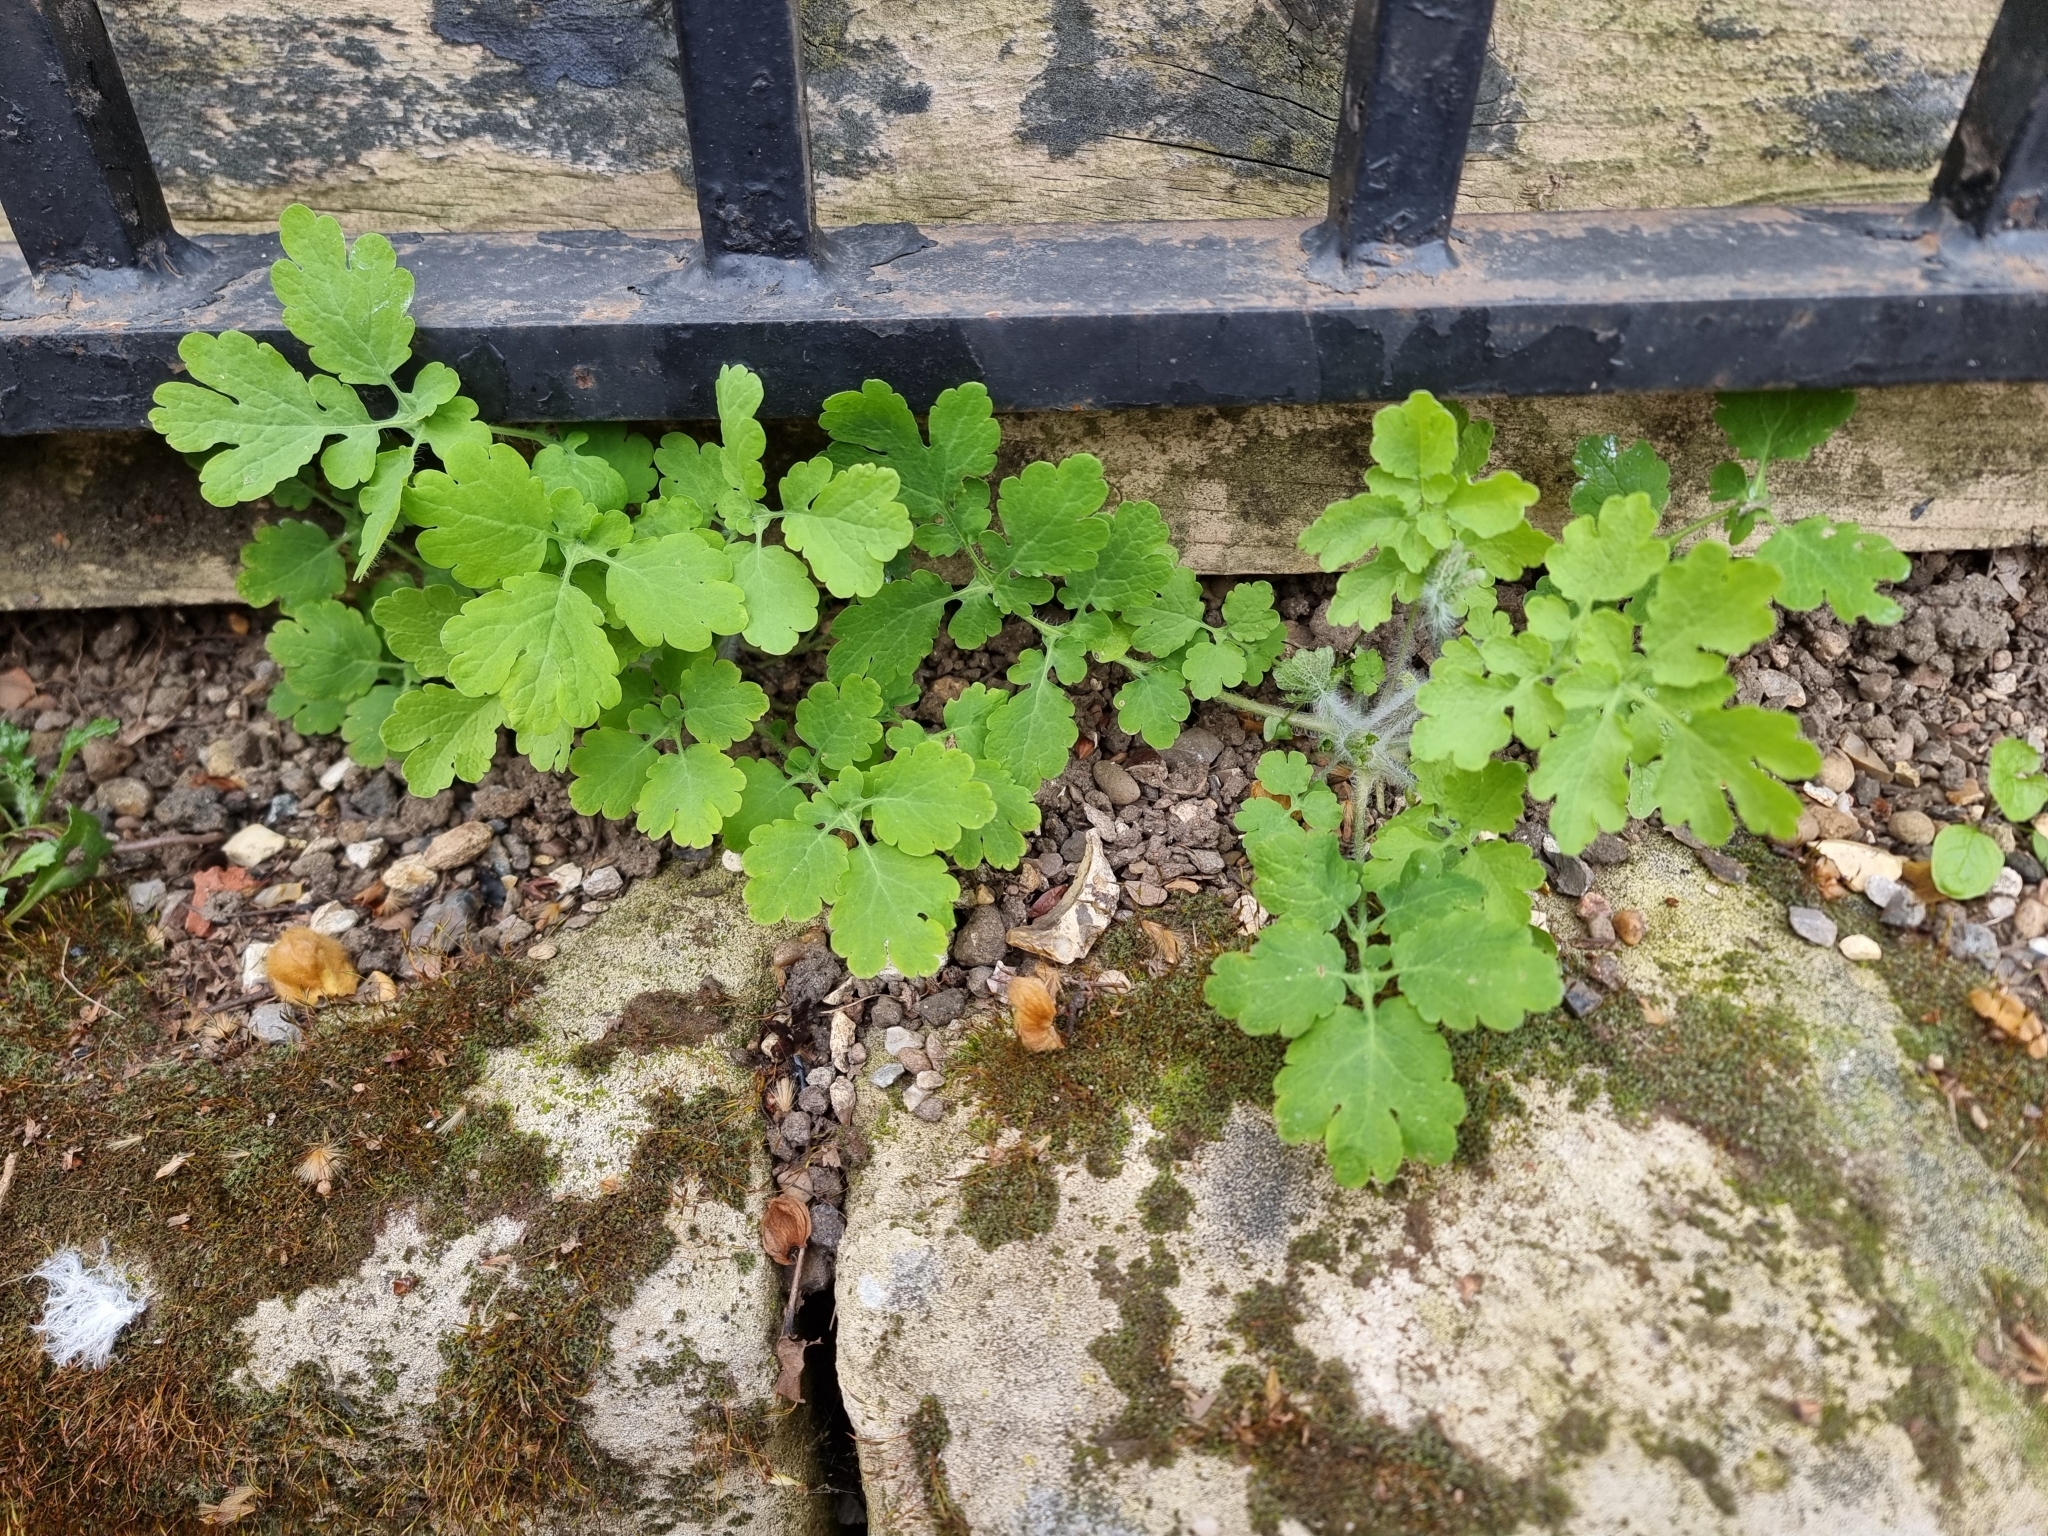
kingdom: Plantae
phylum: Tracheophyta
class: Magnoliopsida
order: Ranunculales
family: Papaveraceae
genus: Chelidonium
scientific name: Chelidonium majus
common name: Greater celandine
